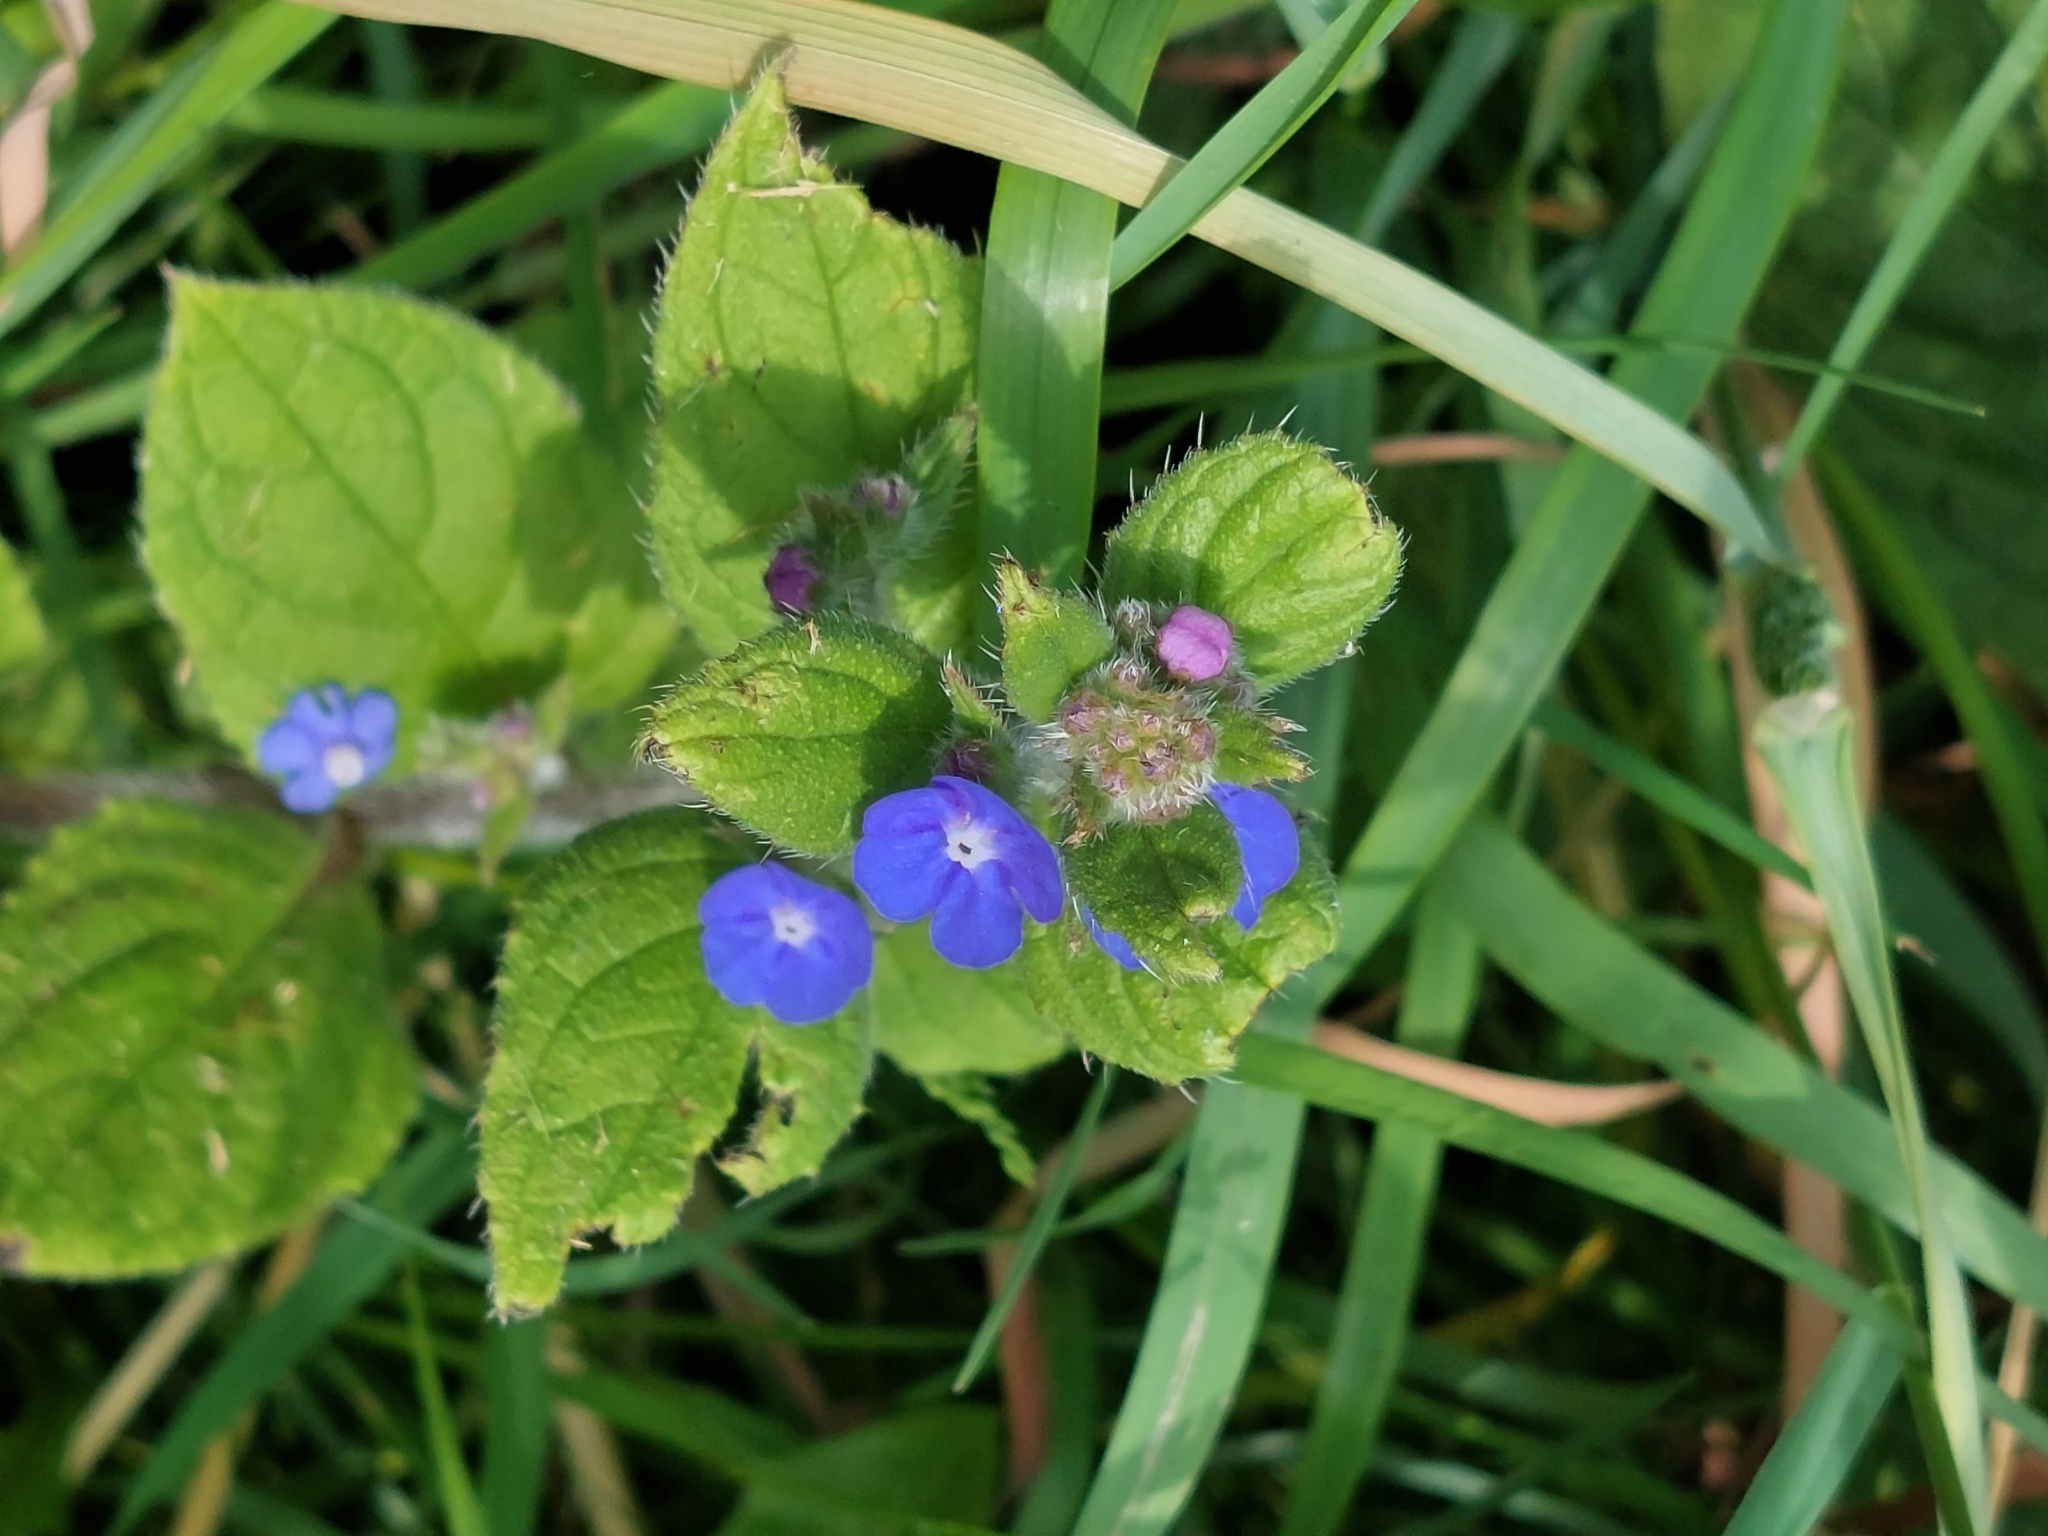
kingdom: Plantae
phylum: Tracheophyta
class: Magnoliopsida
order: Boraginales
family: Boraginaceae
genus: Pentaglottis
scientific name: Pentaglottis sempervirens
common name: Green alkanet
